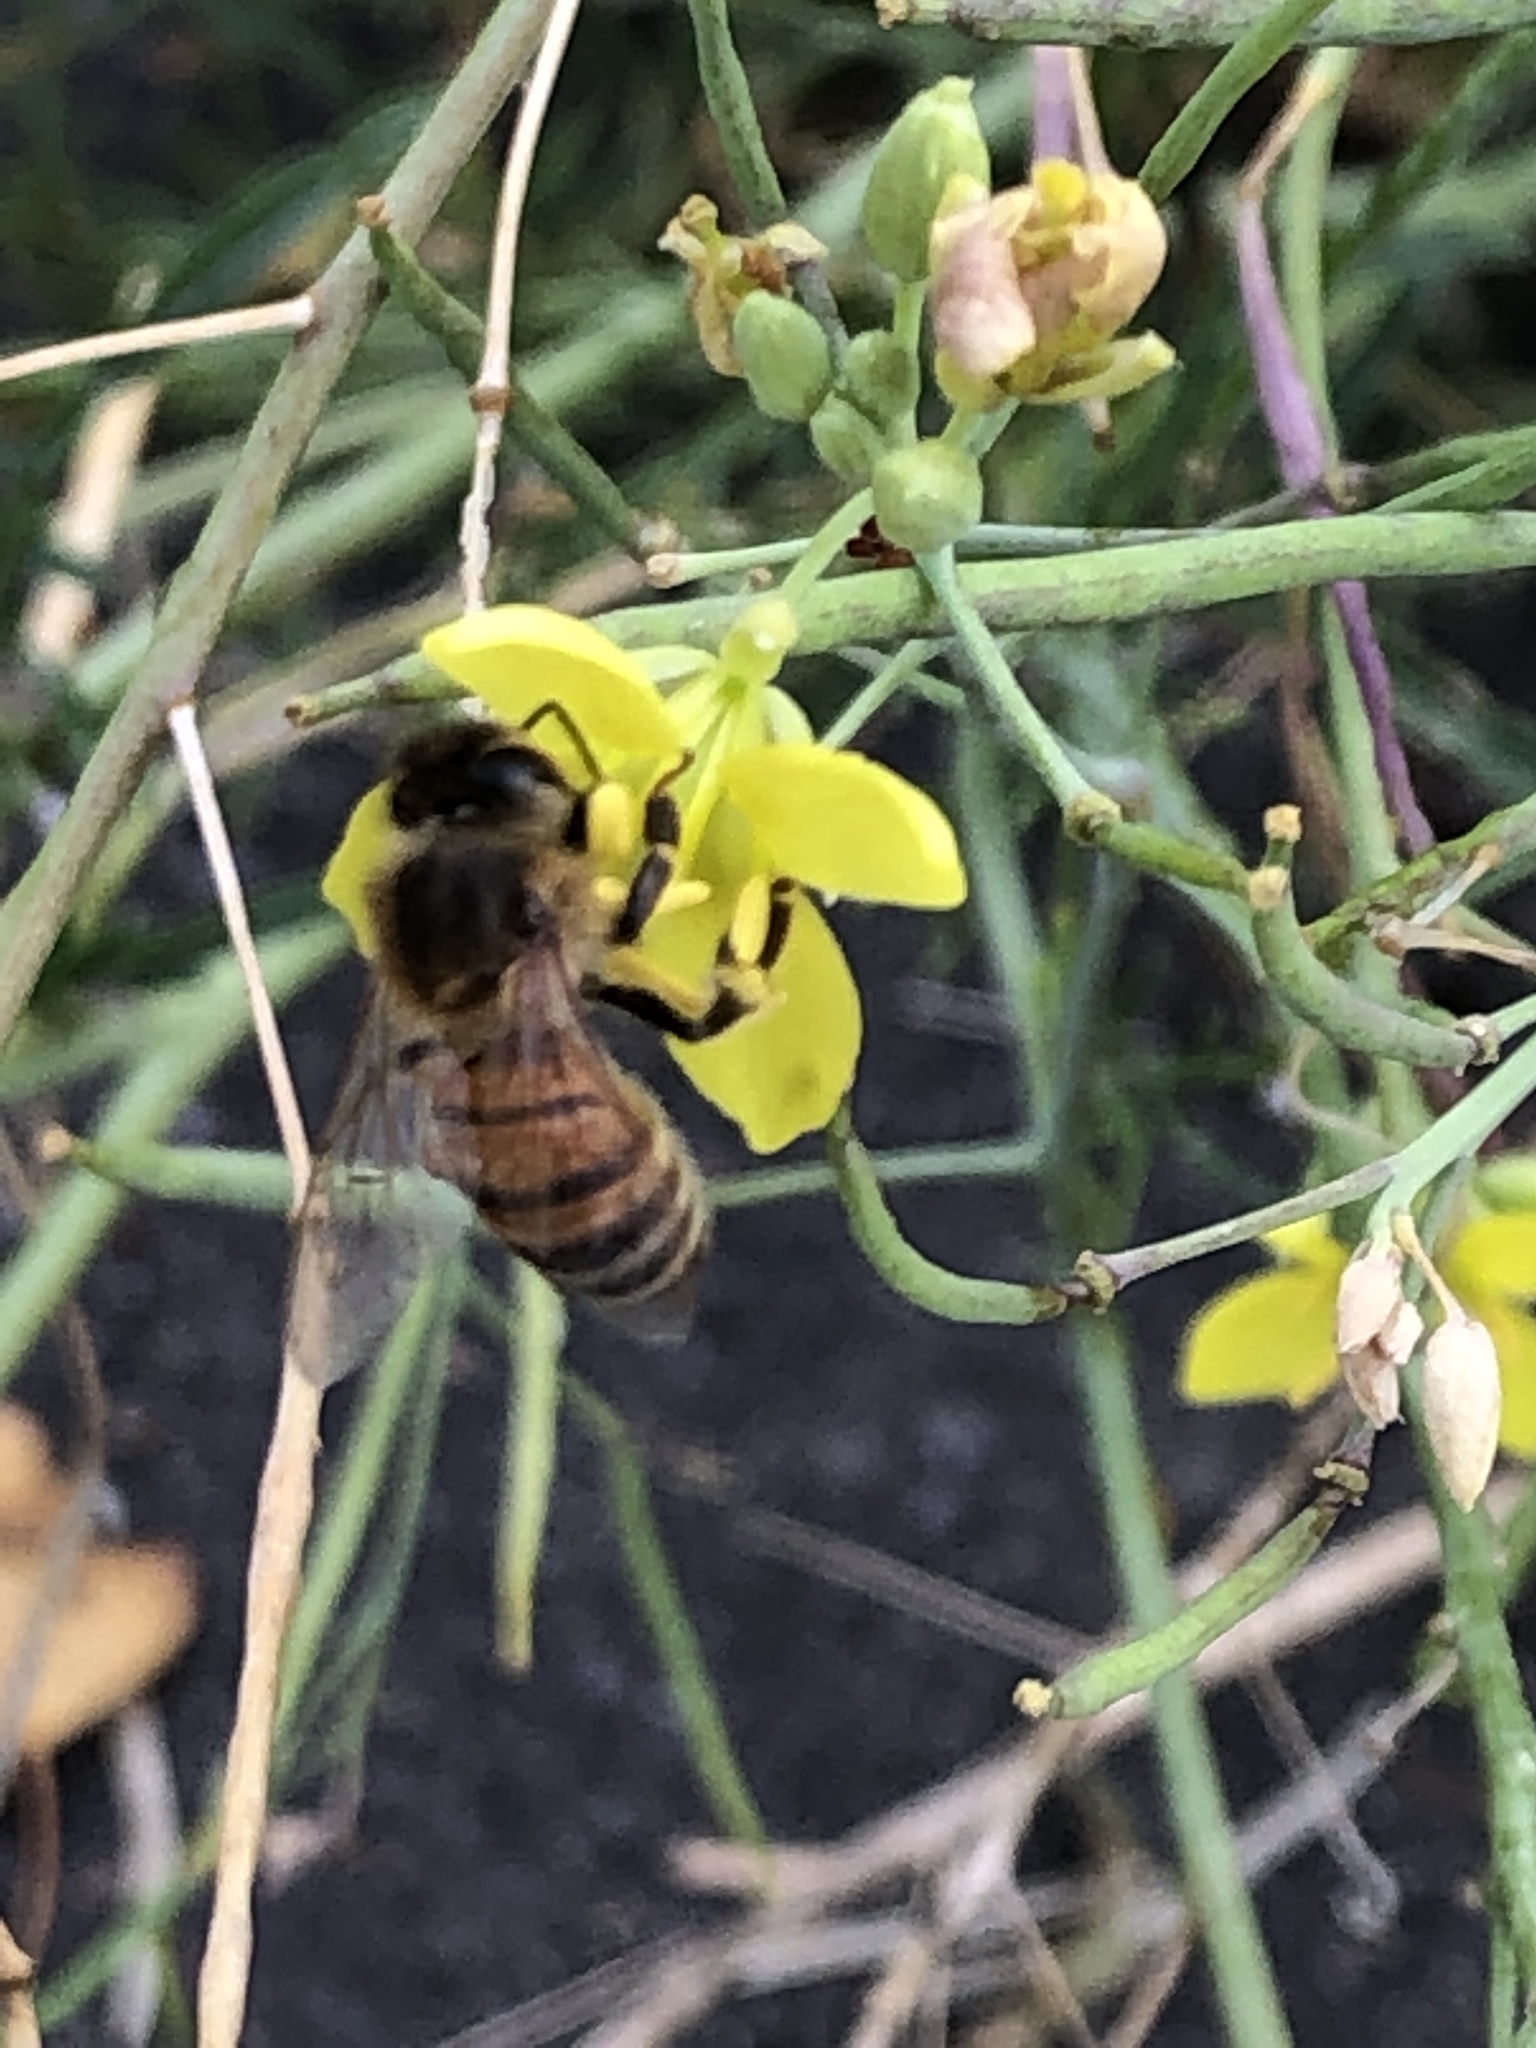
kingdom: Animalia
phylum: Arthropoda
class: Insecta
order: Hymenoptera
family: Apidae
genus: Apis
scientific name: Apis mellifera
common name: Honey bee
